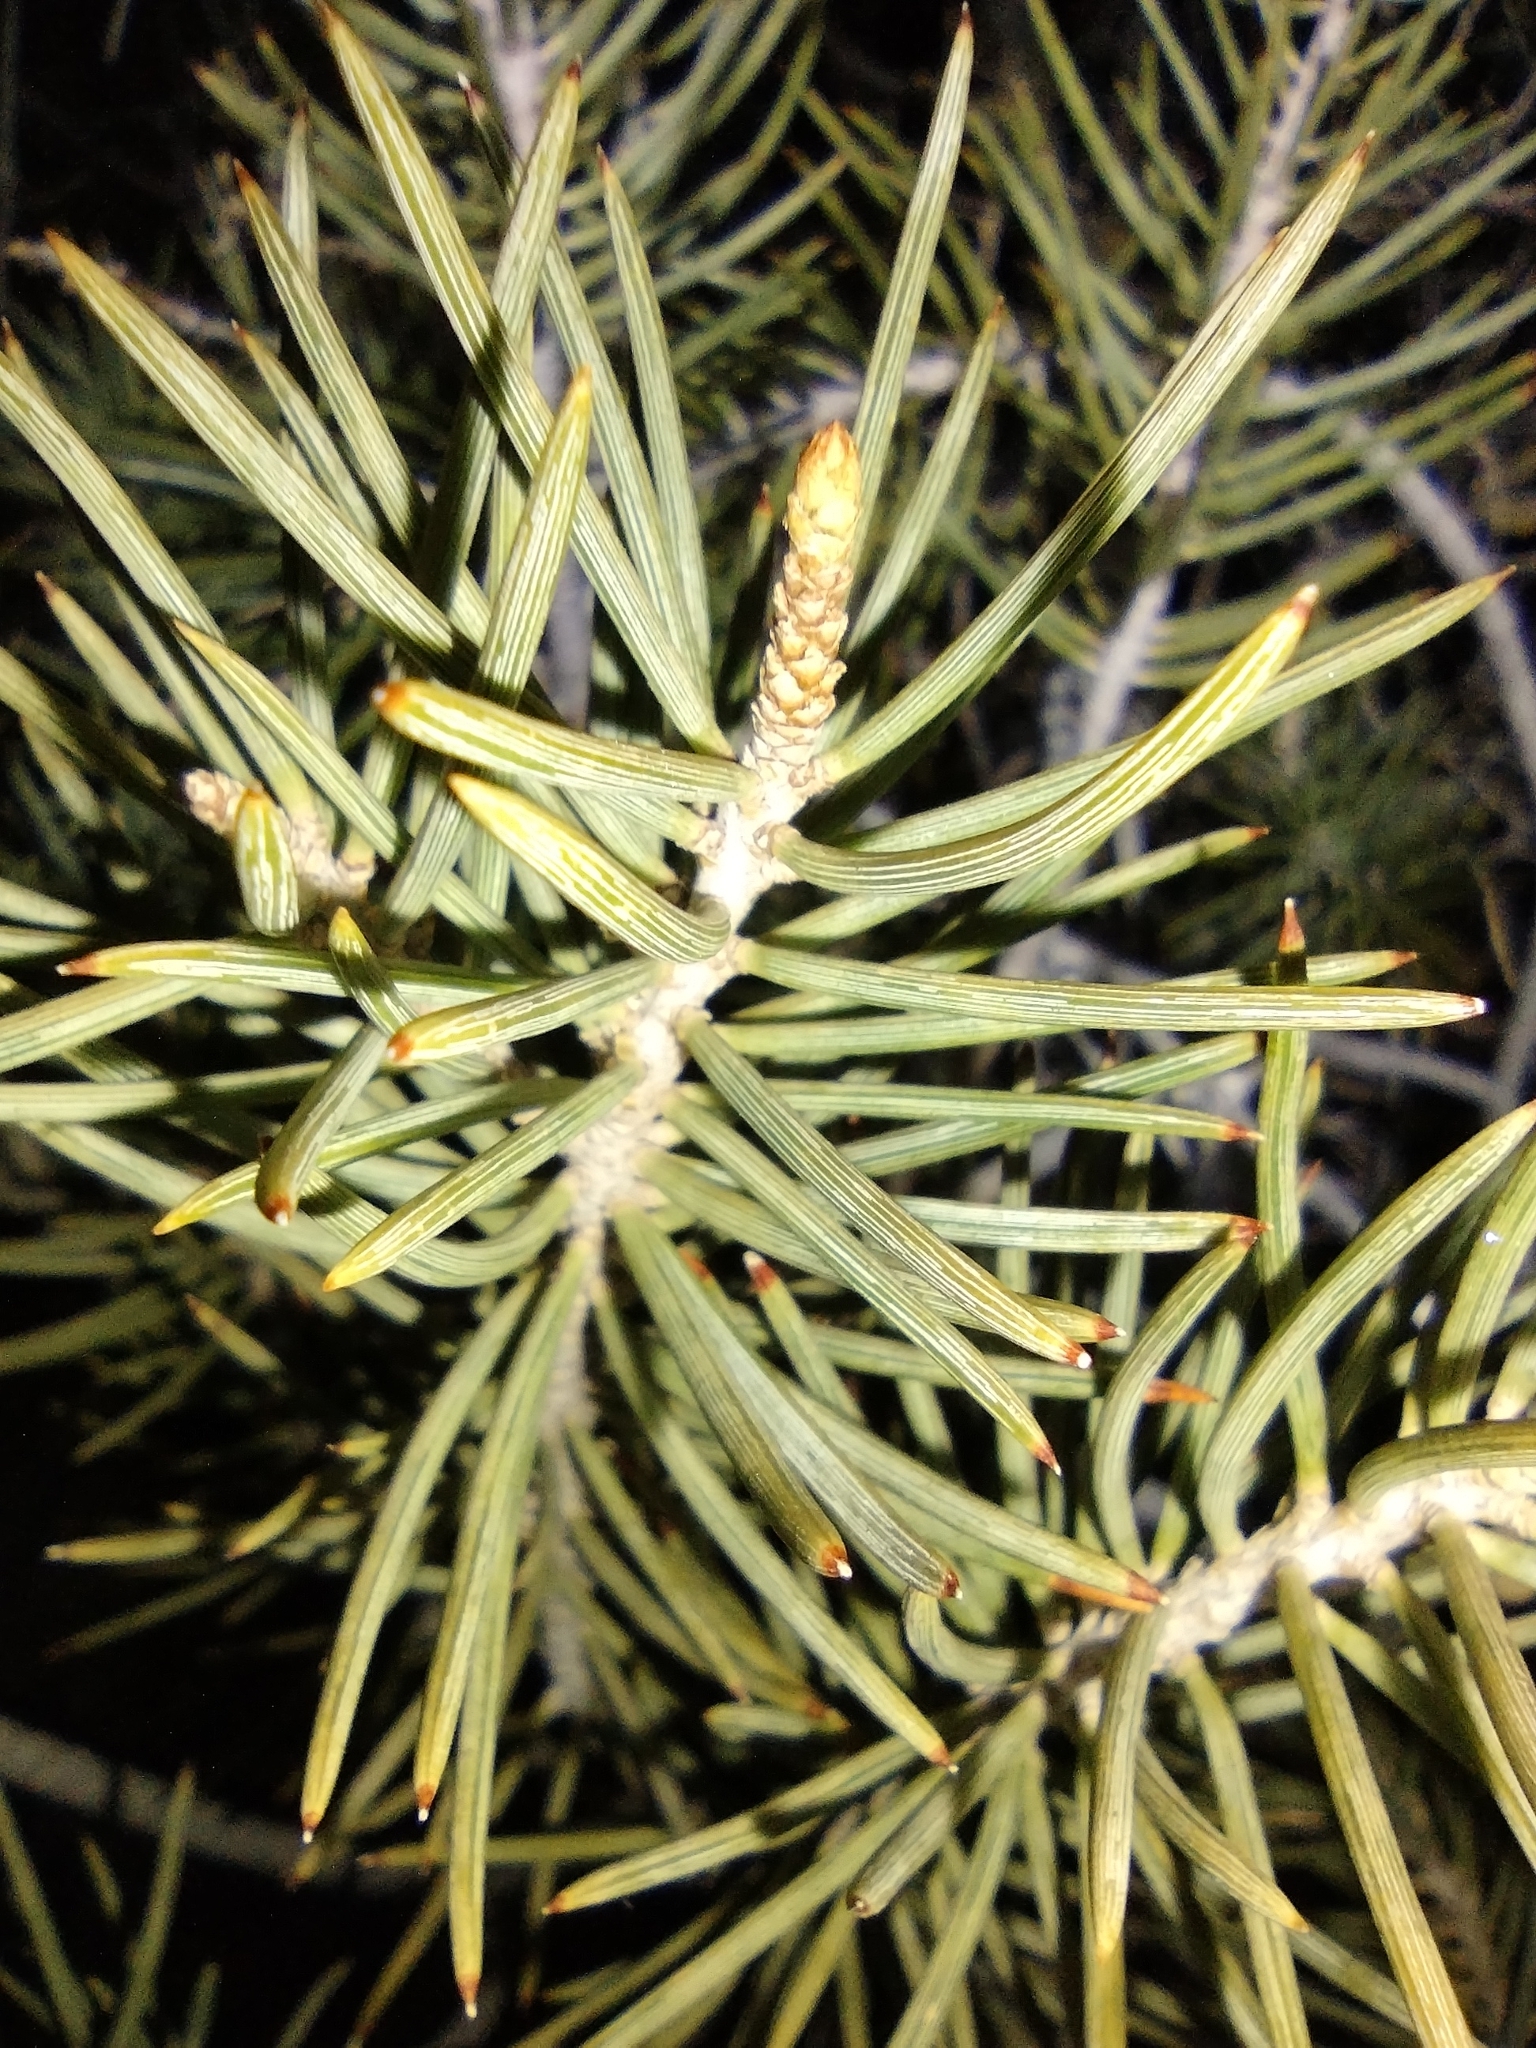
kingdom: Plantae
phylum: Tracheophyta
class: Pinopsida
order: Pinales
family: Pinaceae
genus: Pinus
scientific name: Pinus monophylla
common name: One-leaved nut pine
